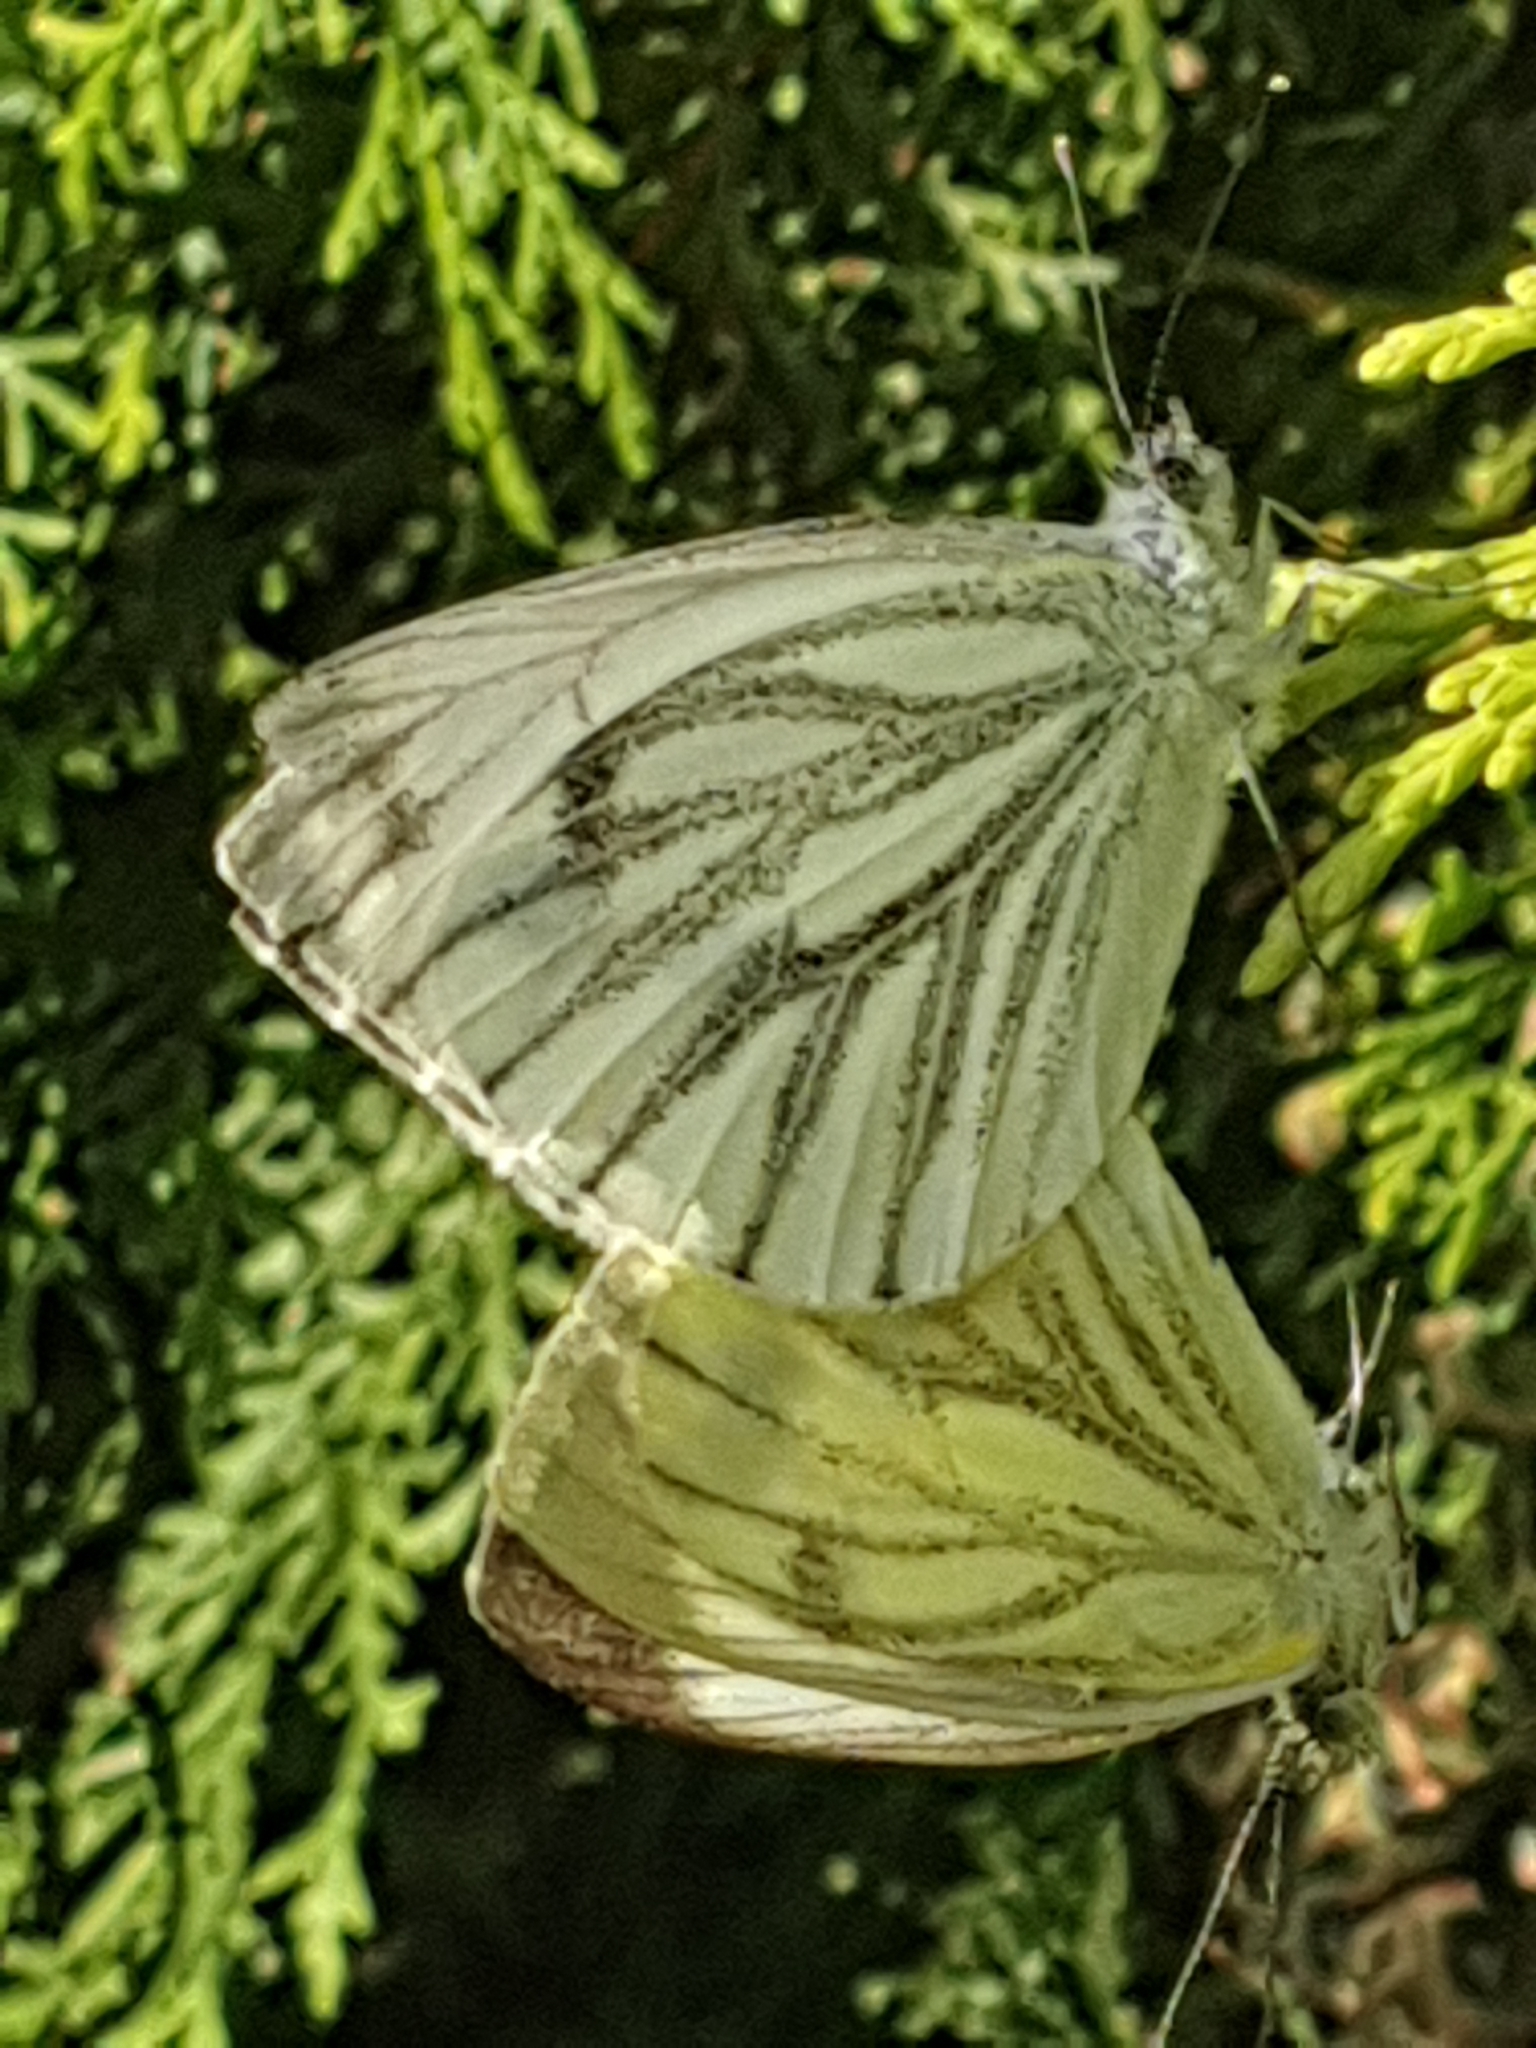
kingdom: Animalia
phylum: Arthropoda
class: Insecta
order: Lepidoptera
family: Pieridae
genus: Pieris
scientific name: Pieris napi
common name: Green-veined white
